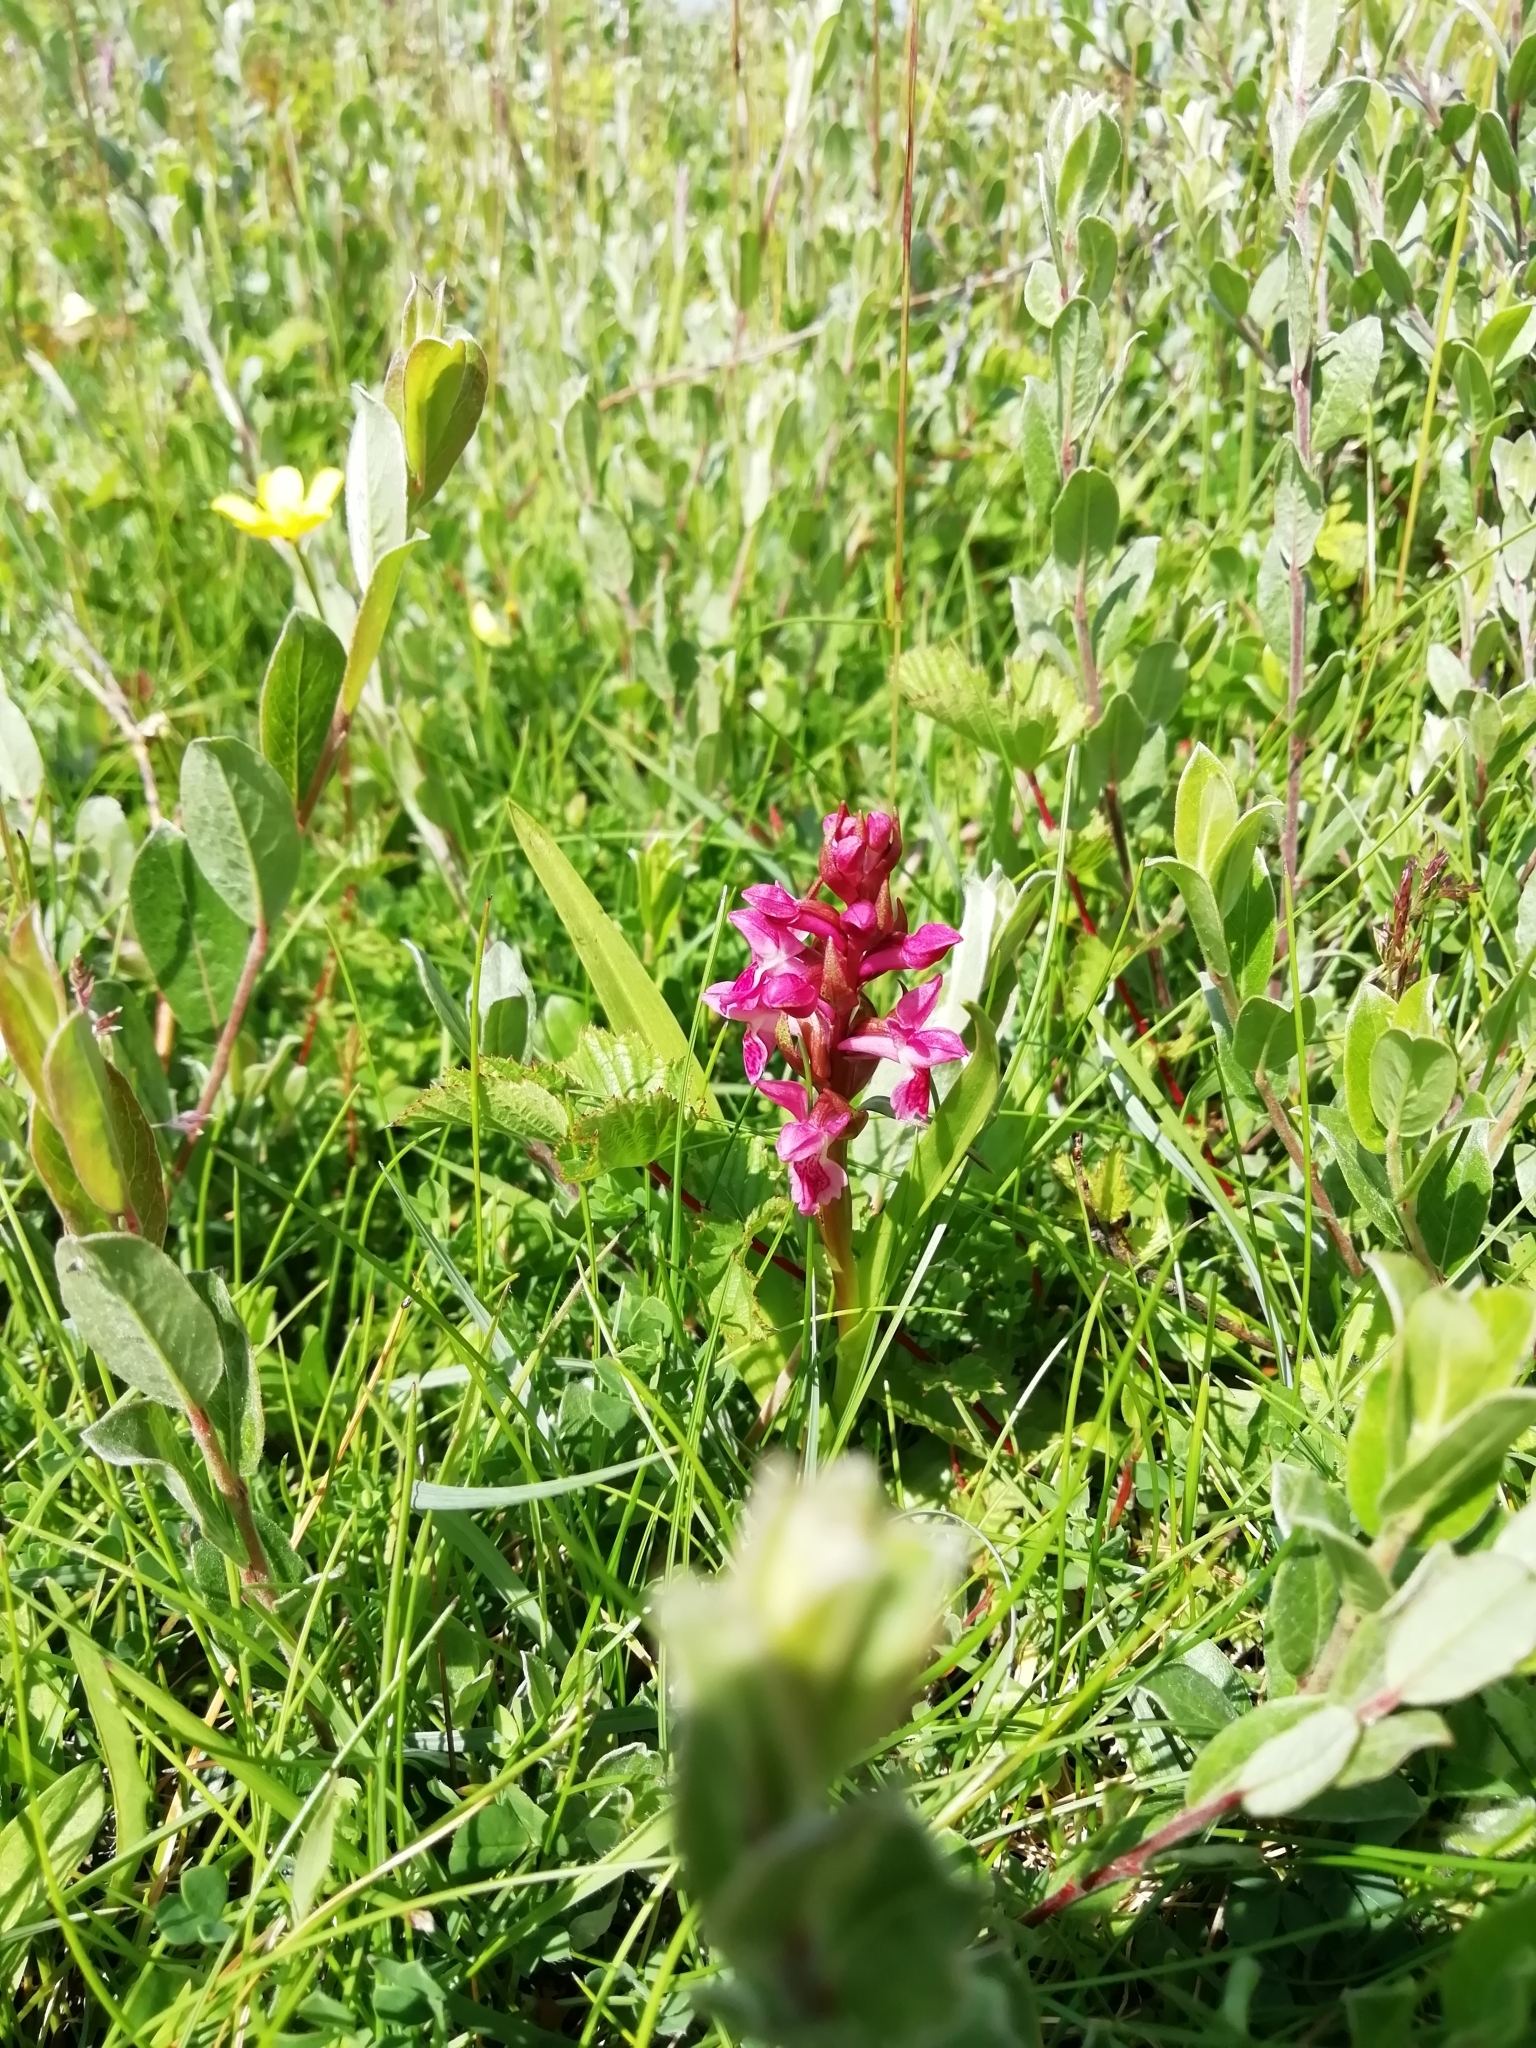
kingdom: Plantae
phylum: Tracheophyta
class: Liliopsida
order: Asparagales
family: Orchidaceae
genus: Dactylorhiza
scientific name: Dactylorhiza incarnata
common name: Early marsh-orchid
